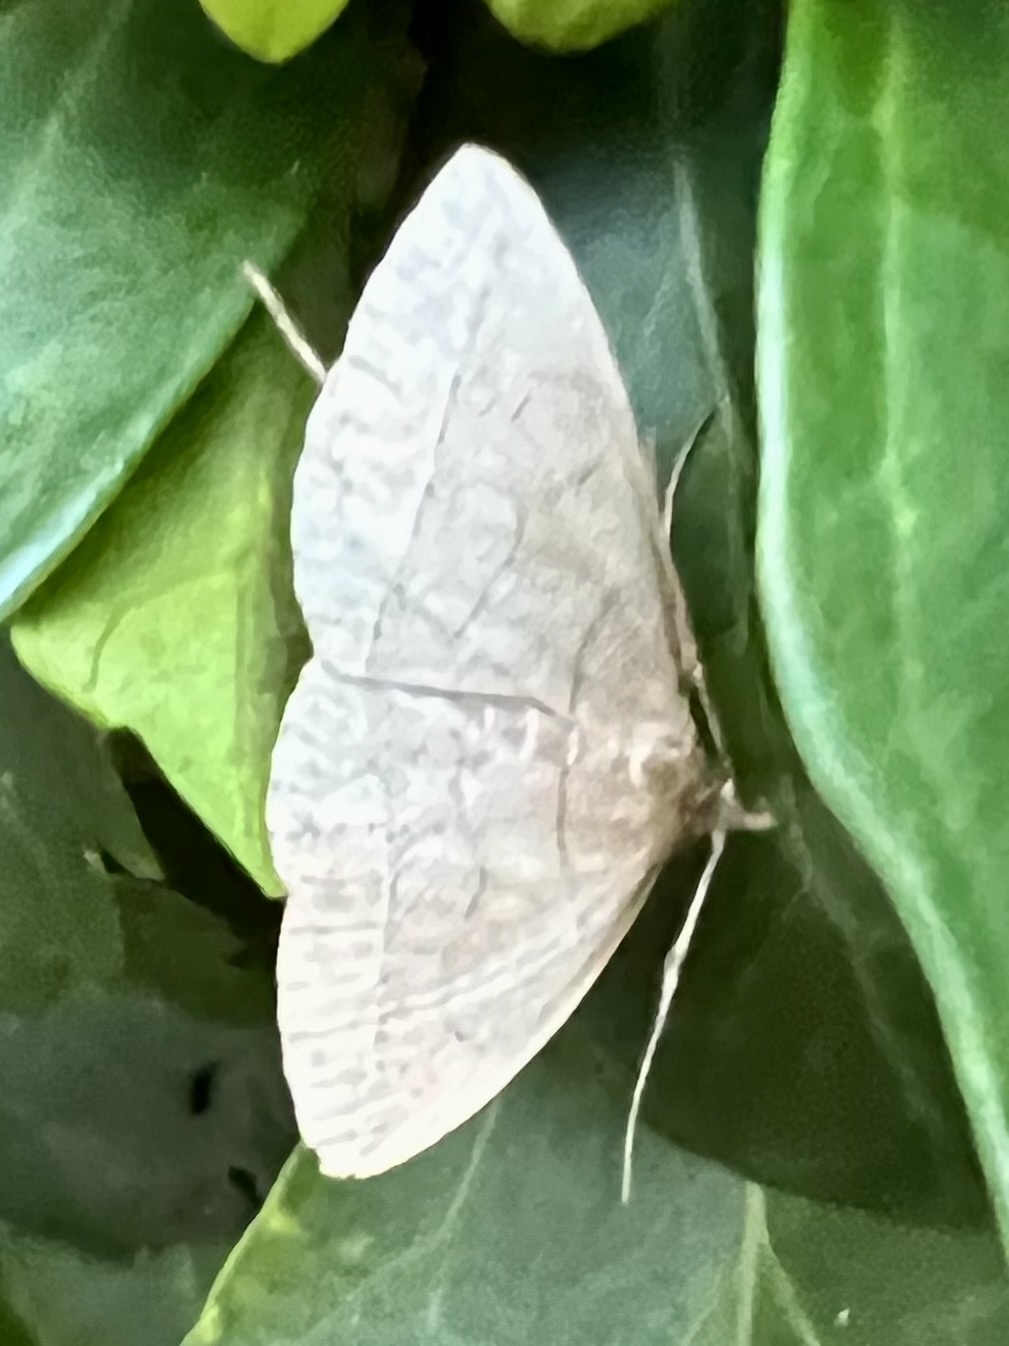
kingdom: Animalia
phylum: Arthropoda
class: Insecta
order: Lepidoptera
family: Erebidae
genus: Zanclognatha
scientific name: Zanclognatha pedipilalis
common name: Grayish fan-foot
